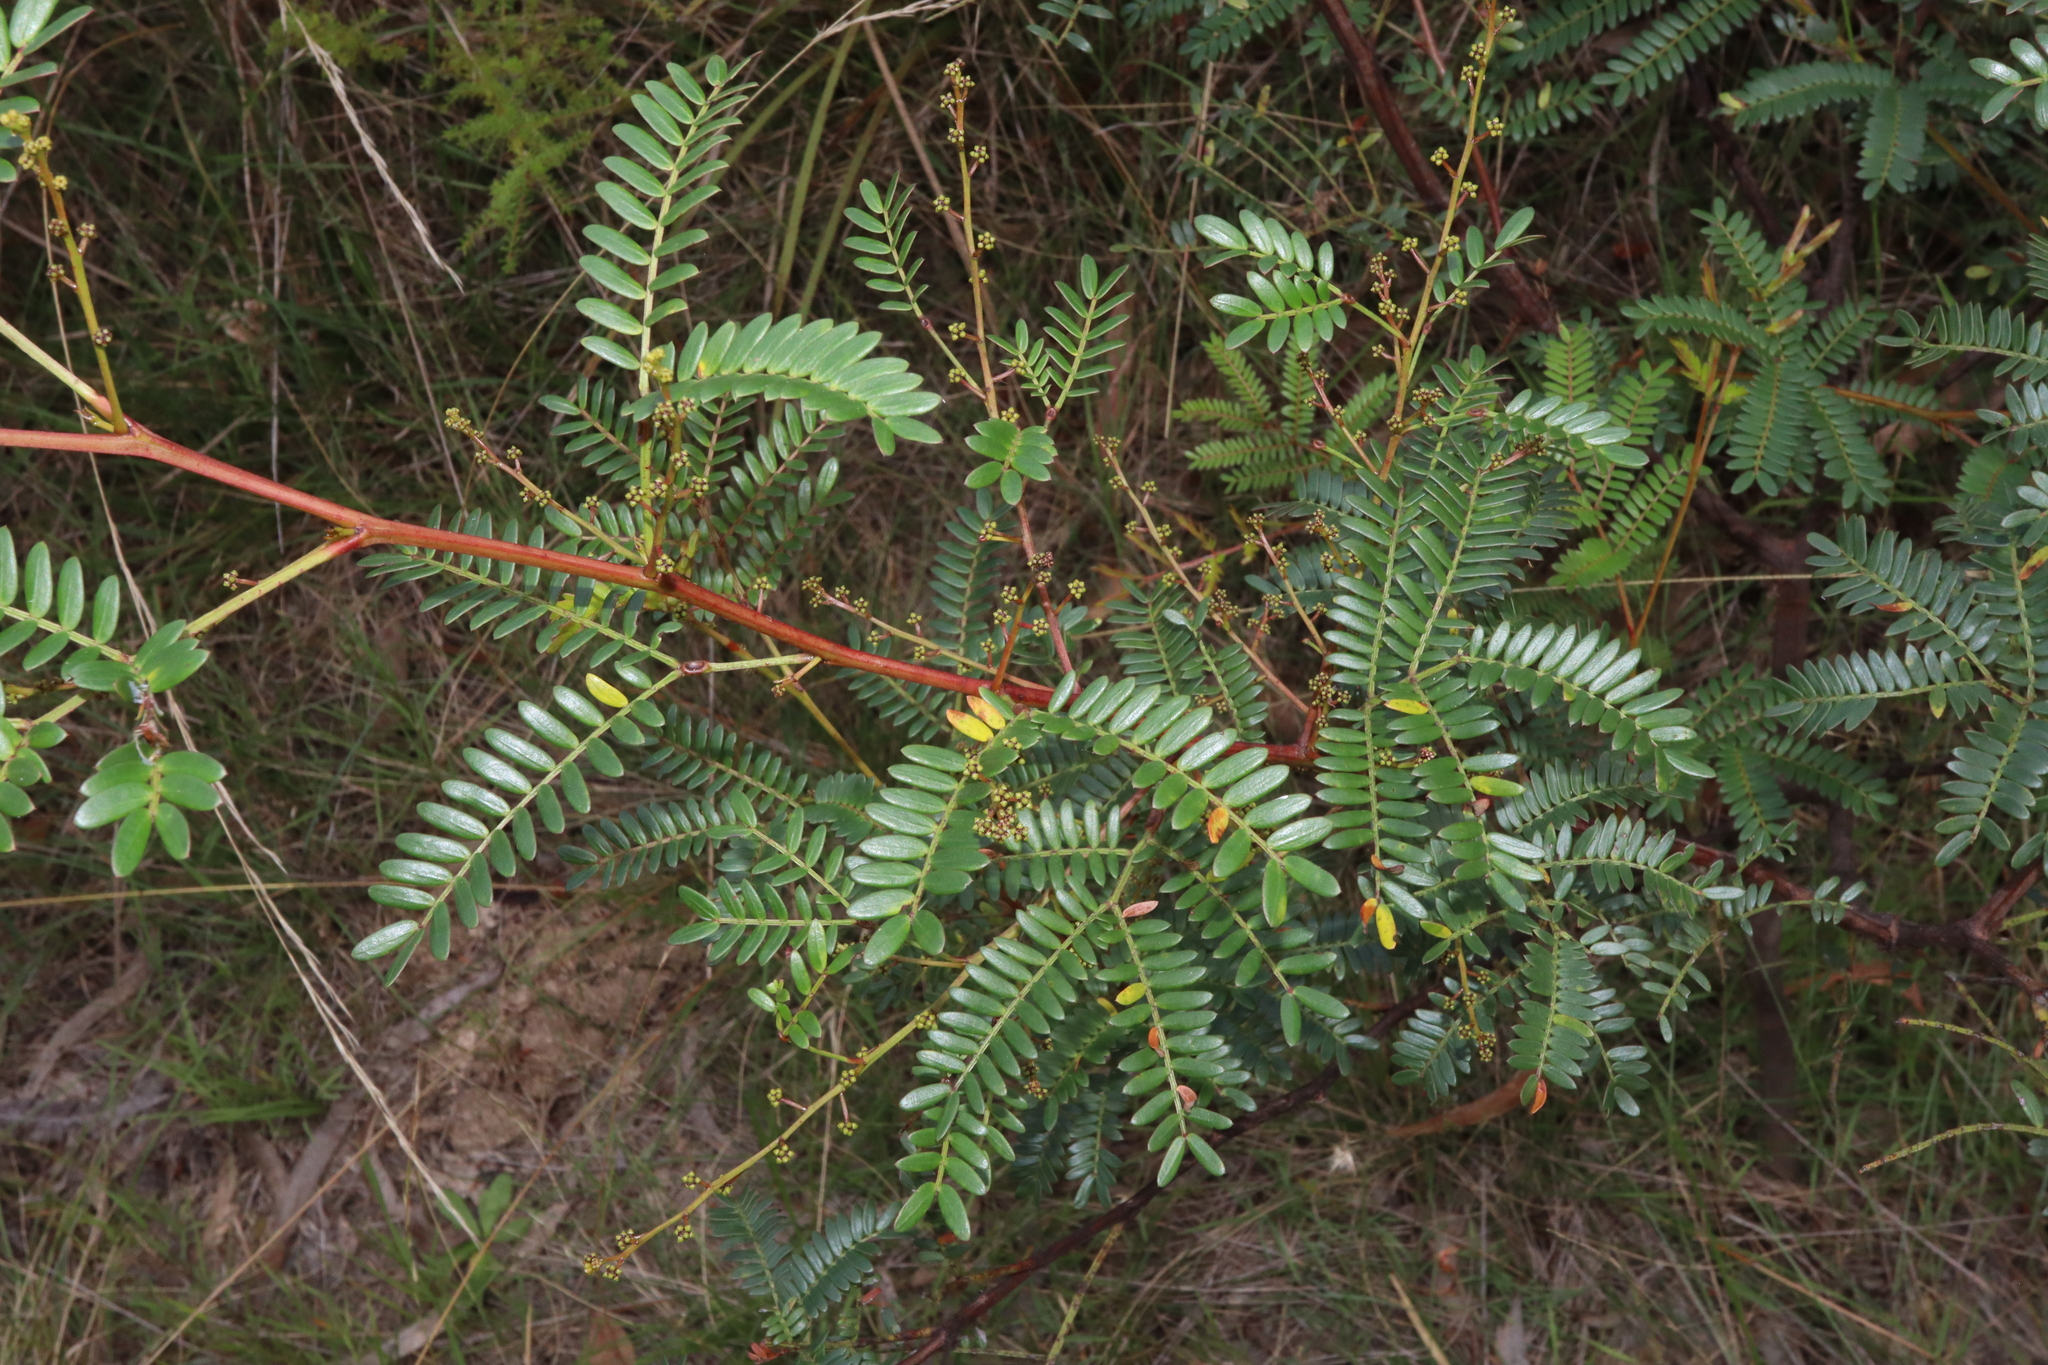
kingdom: Plantae
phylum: Tracheophyta
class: Magnoliopsida
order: Fabales
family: Fabaceae
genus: Acacia
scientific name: Acacia terminalis
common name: Cedar wattle
